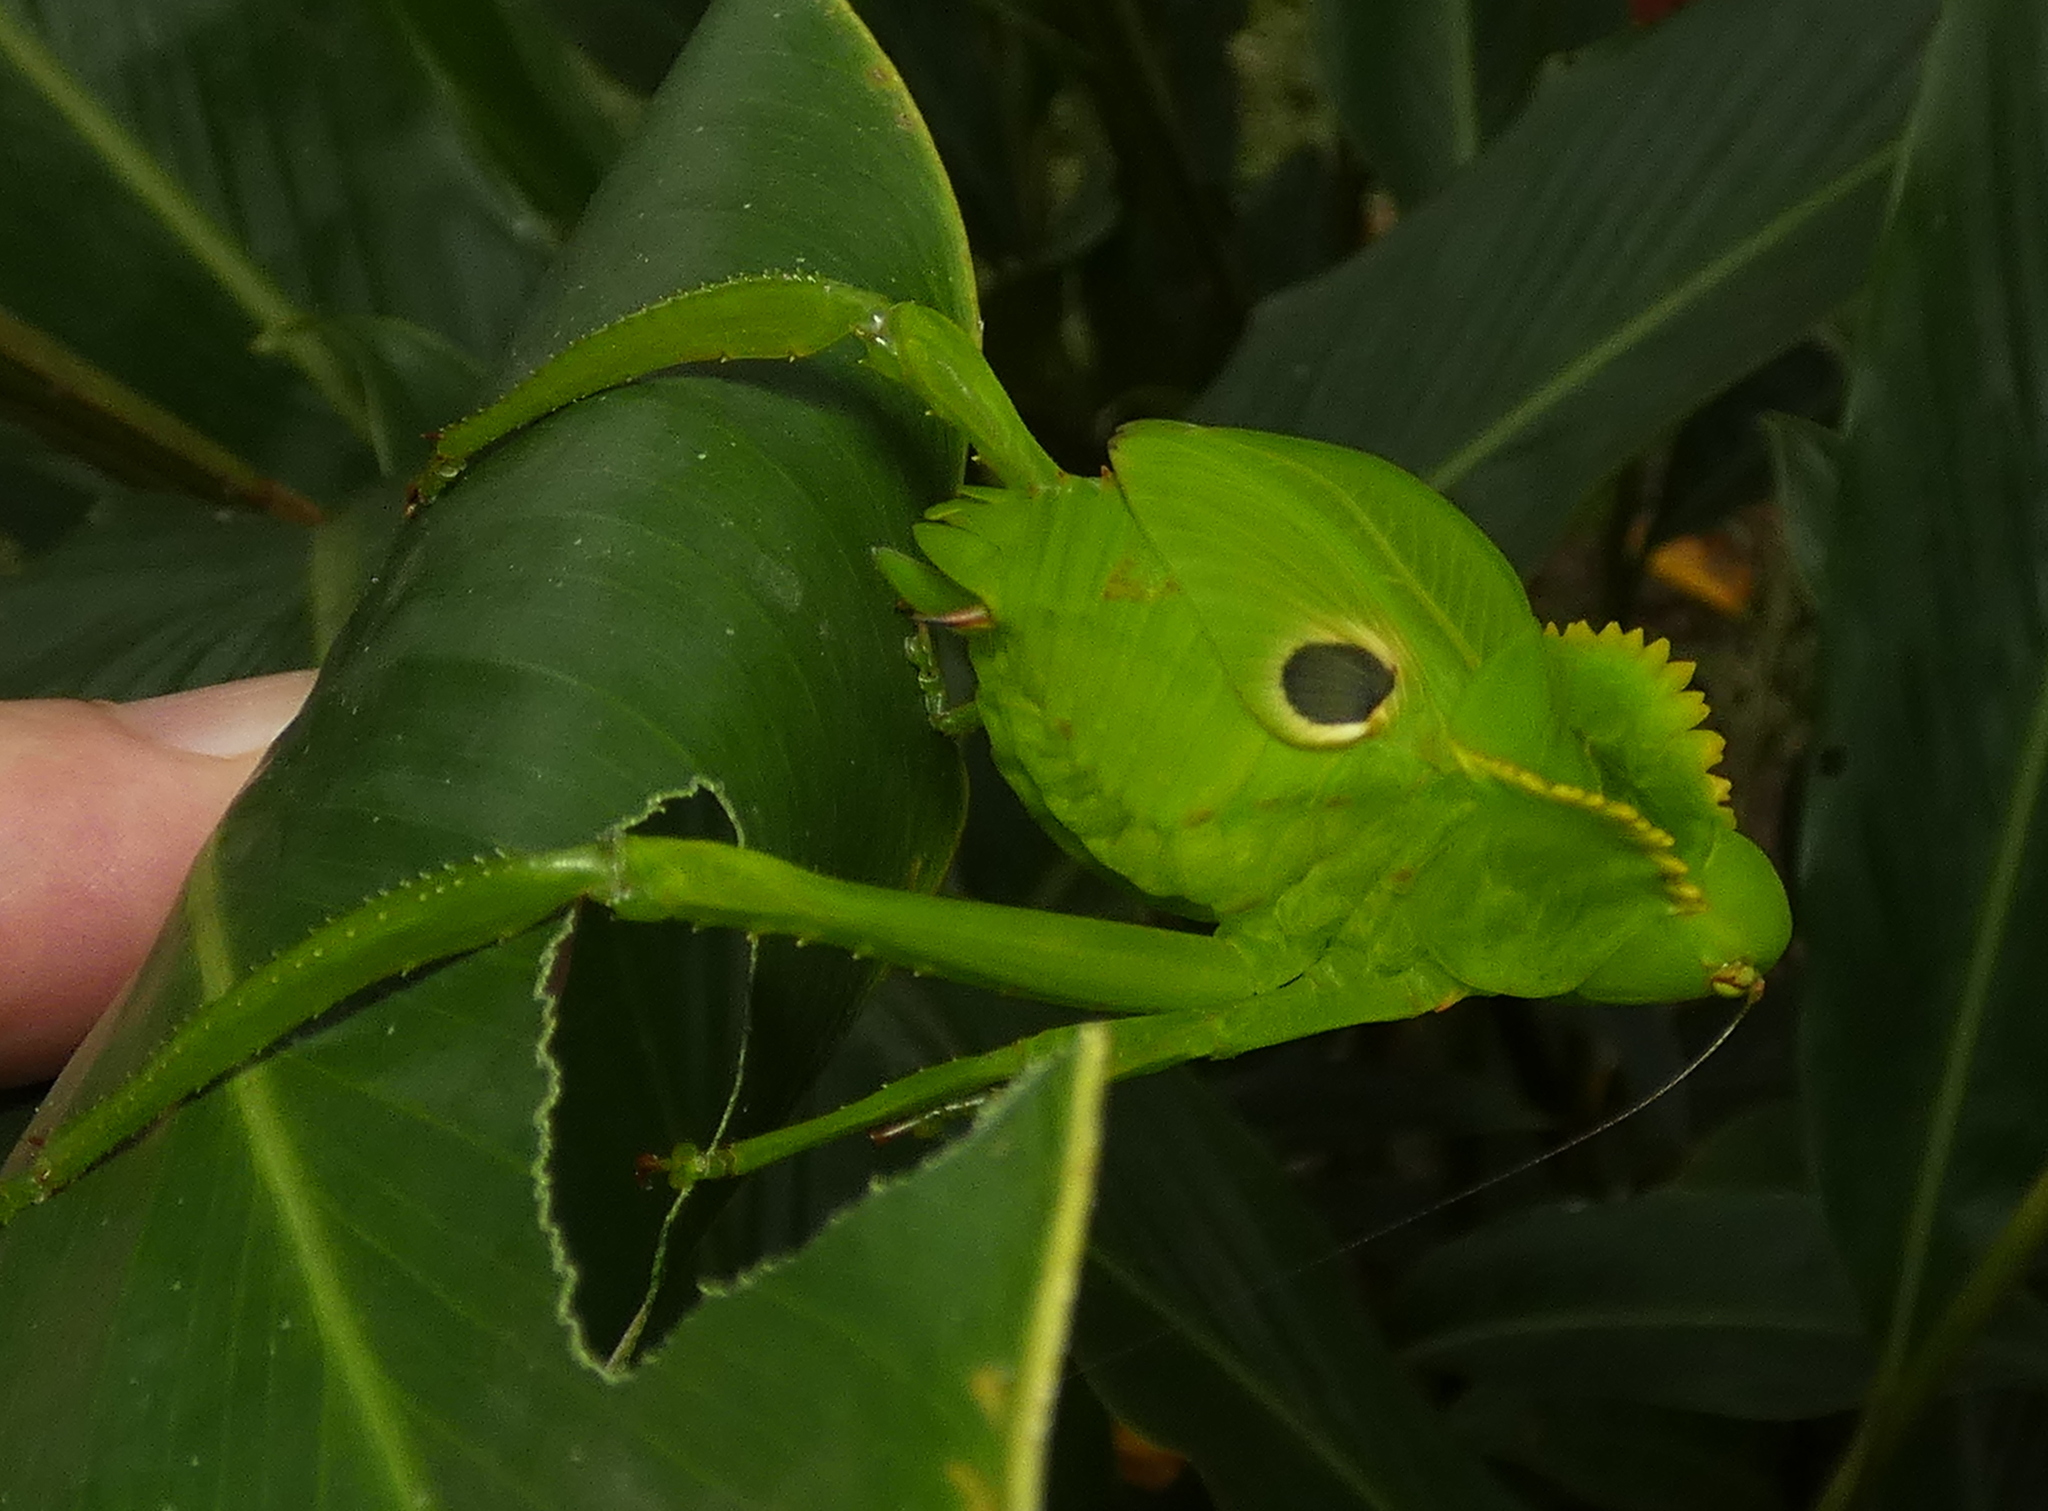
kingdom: Animalia
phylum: Arthropoda
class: Insecta
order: Orthoptera
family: Tettigoniidae
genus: Cnemidophyllum
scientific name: Cnemidophyllum citrifolium
